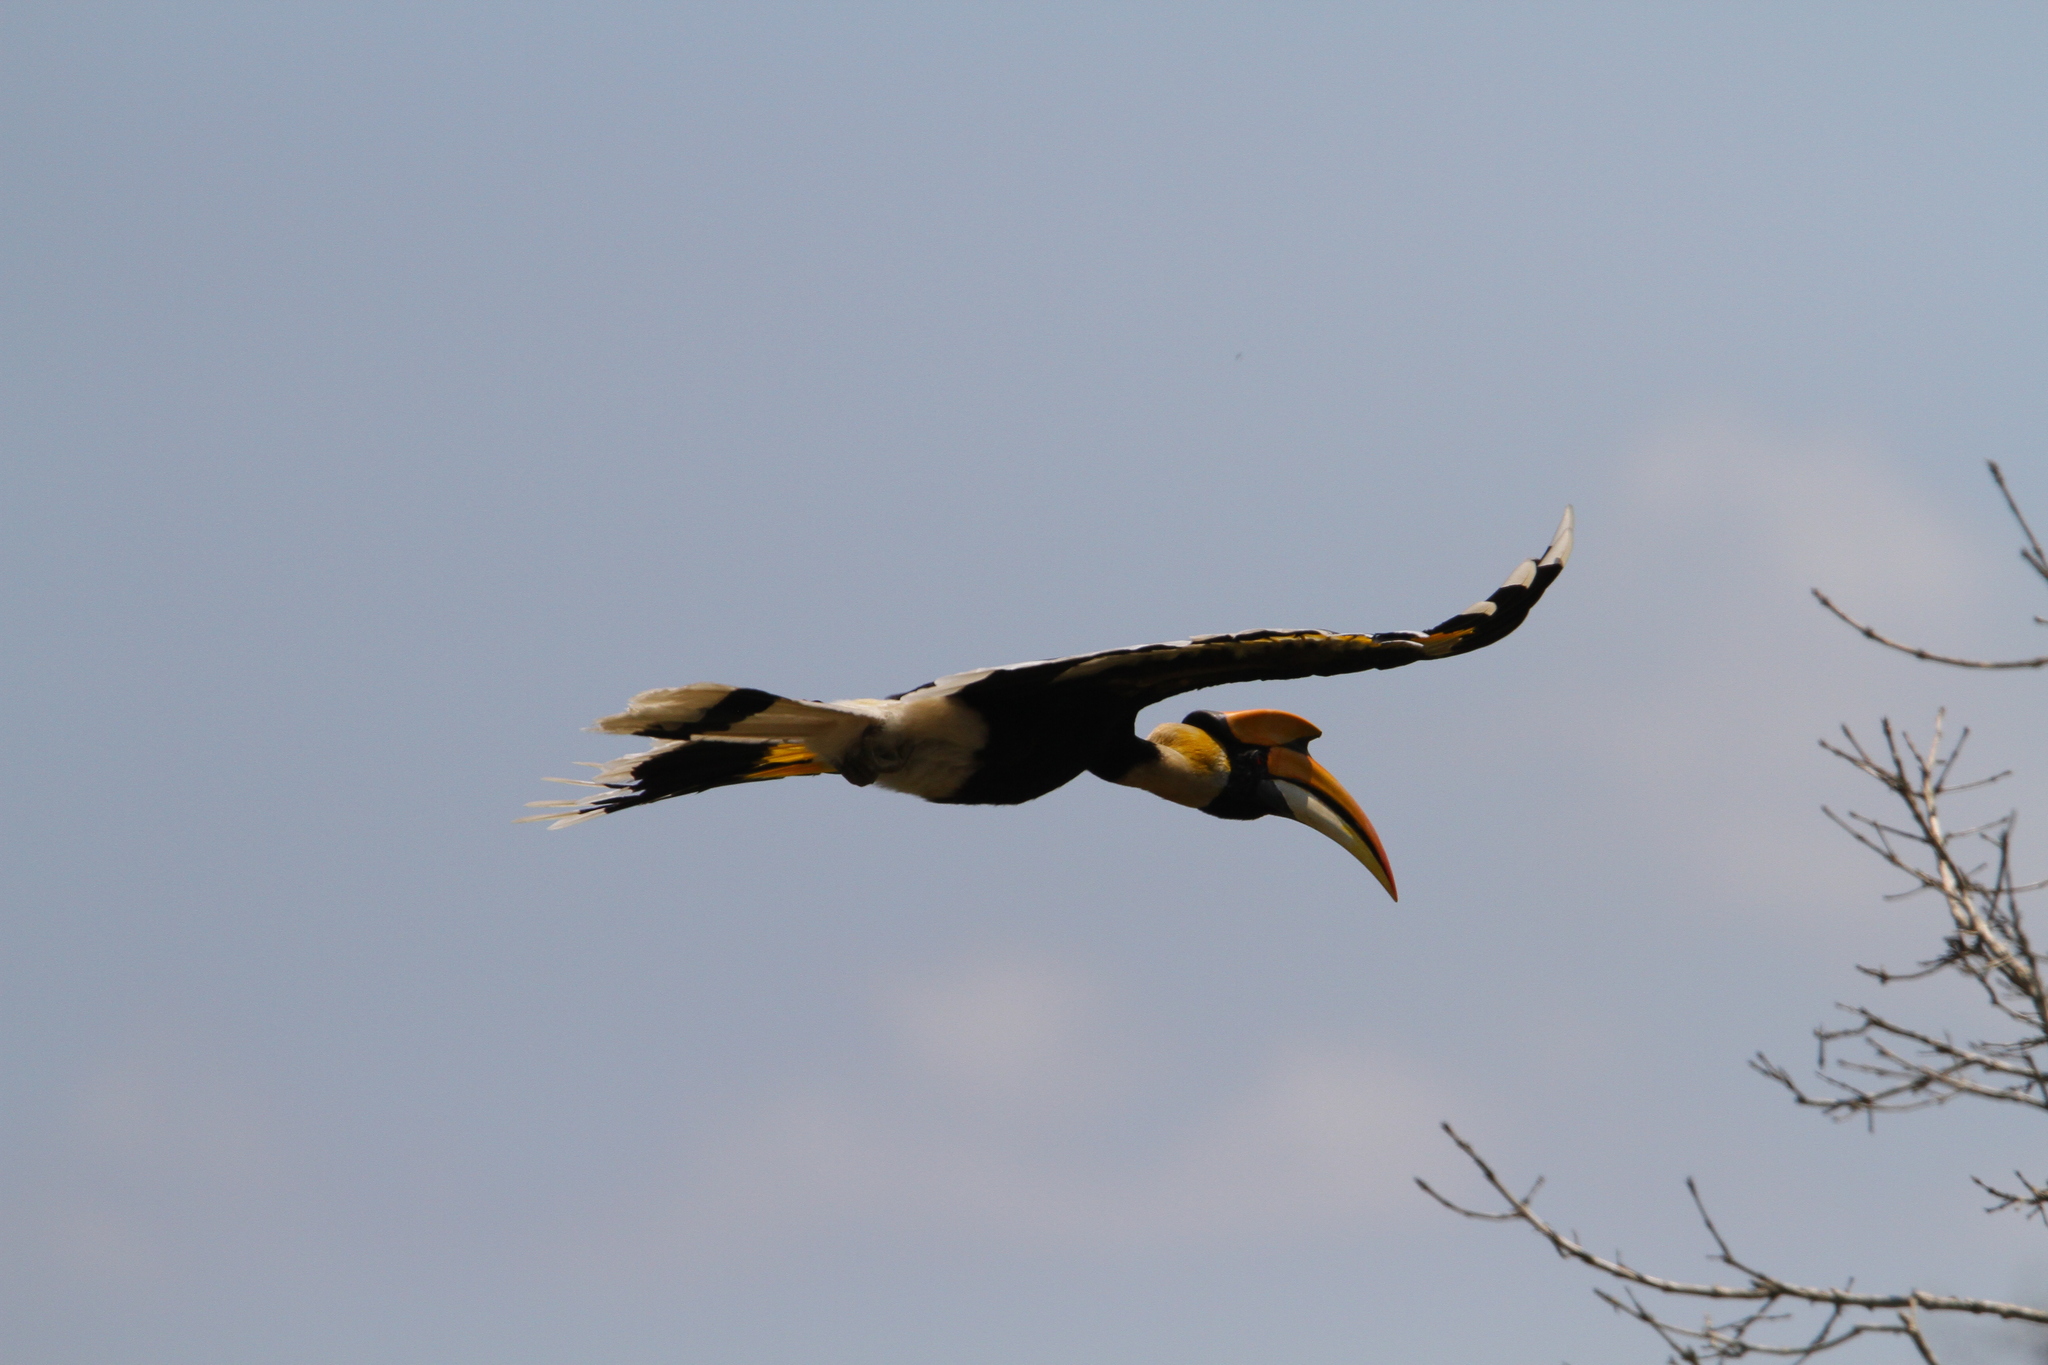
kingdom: Animalia
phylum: Chordata
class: Aves
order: Bucerotiformes
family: Bucerotidae
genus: Buceros
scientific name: Buceros bicornis
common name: Great hornbill
